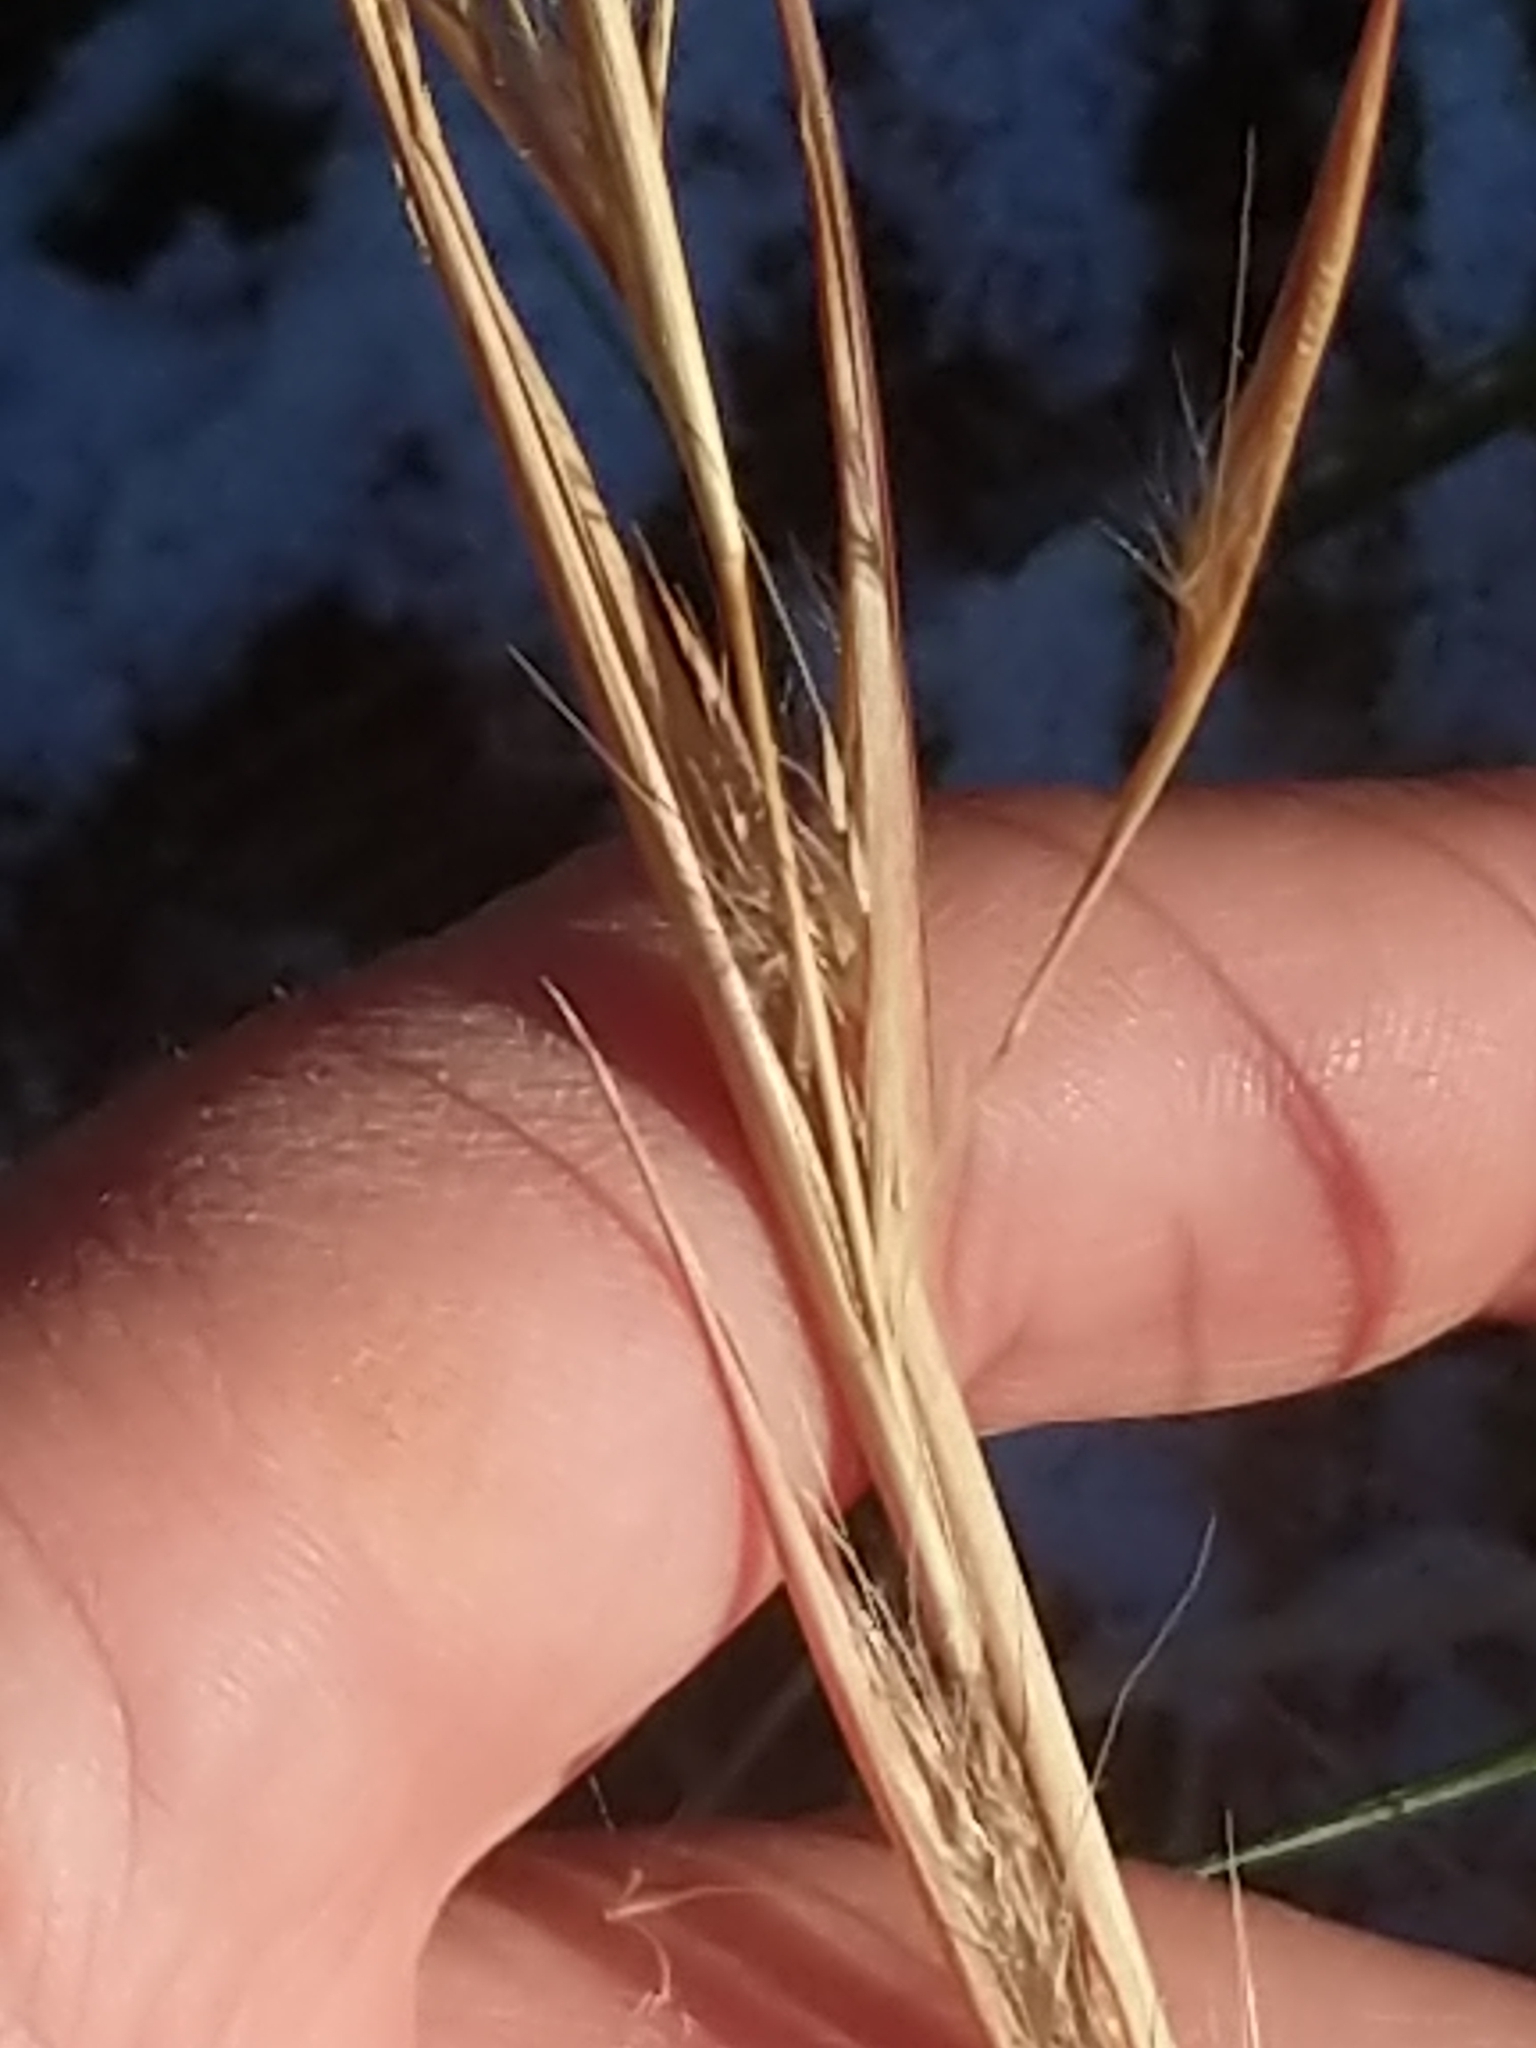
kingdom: Plantae
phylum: Tracheophyta
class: Liliopsida
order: Poales
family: Poaceae
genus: Andropogon
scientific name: Andropogon virginicus
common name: Broomsedge bluestem
